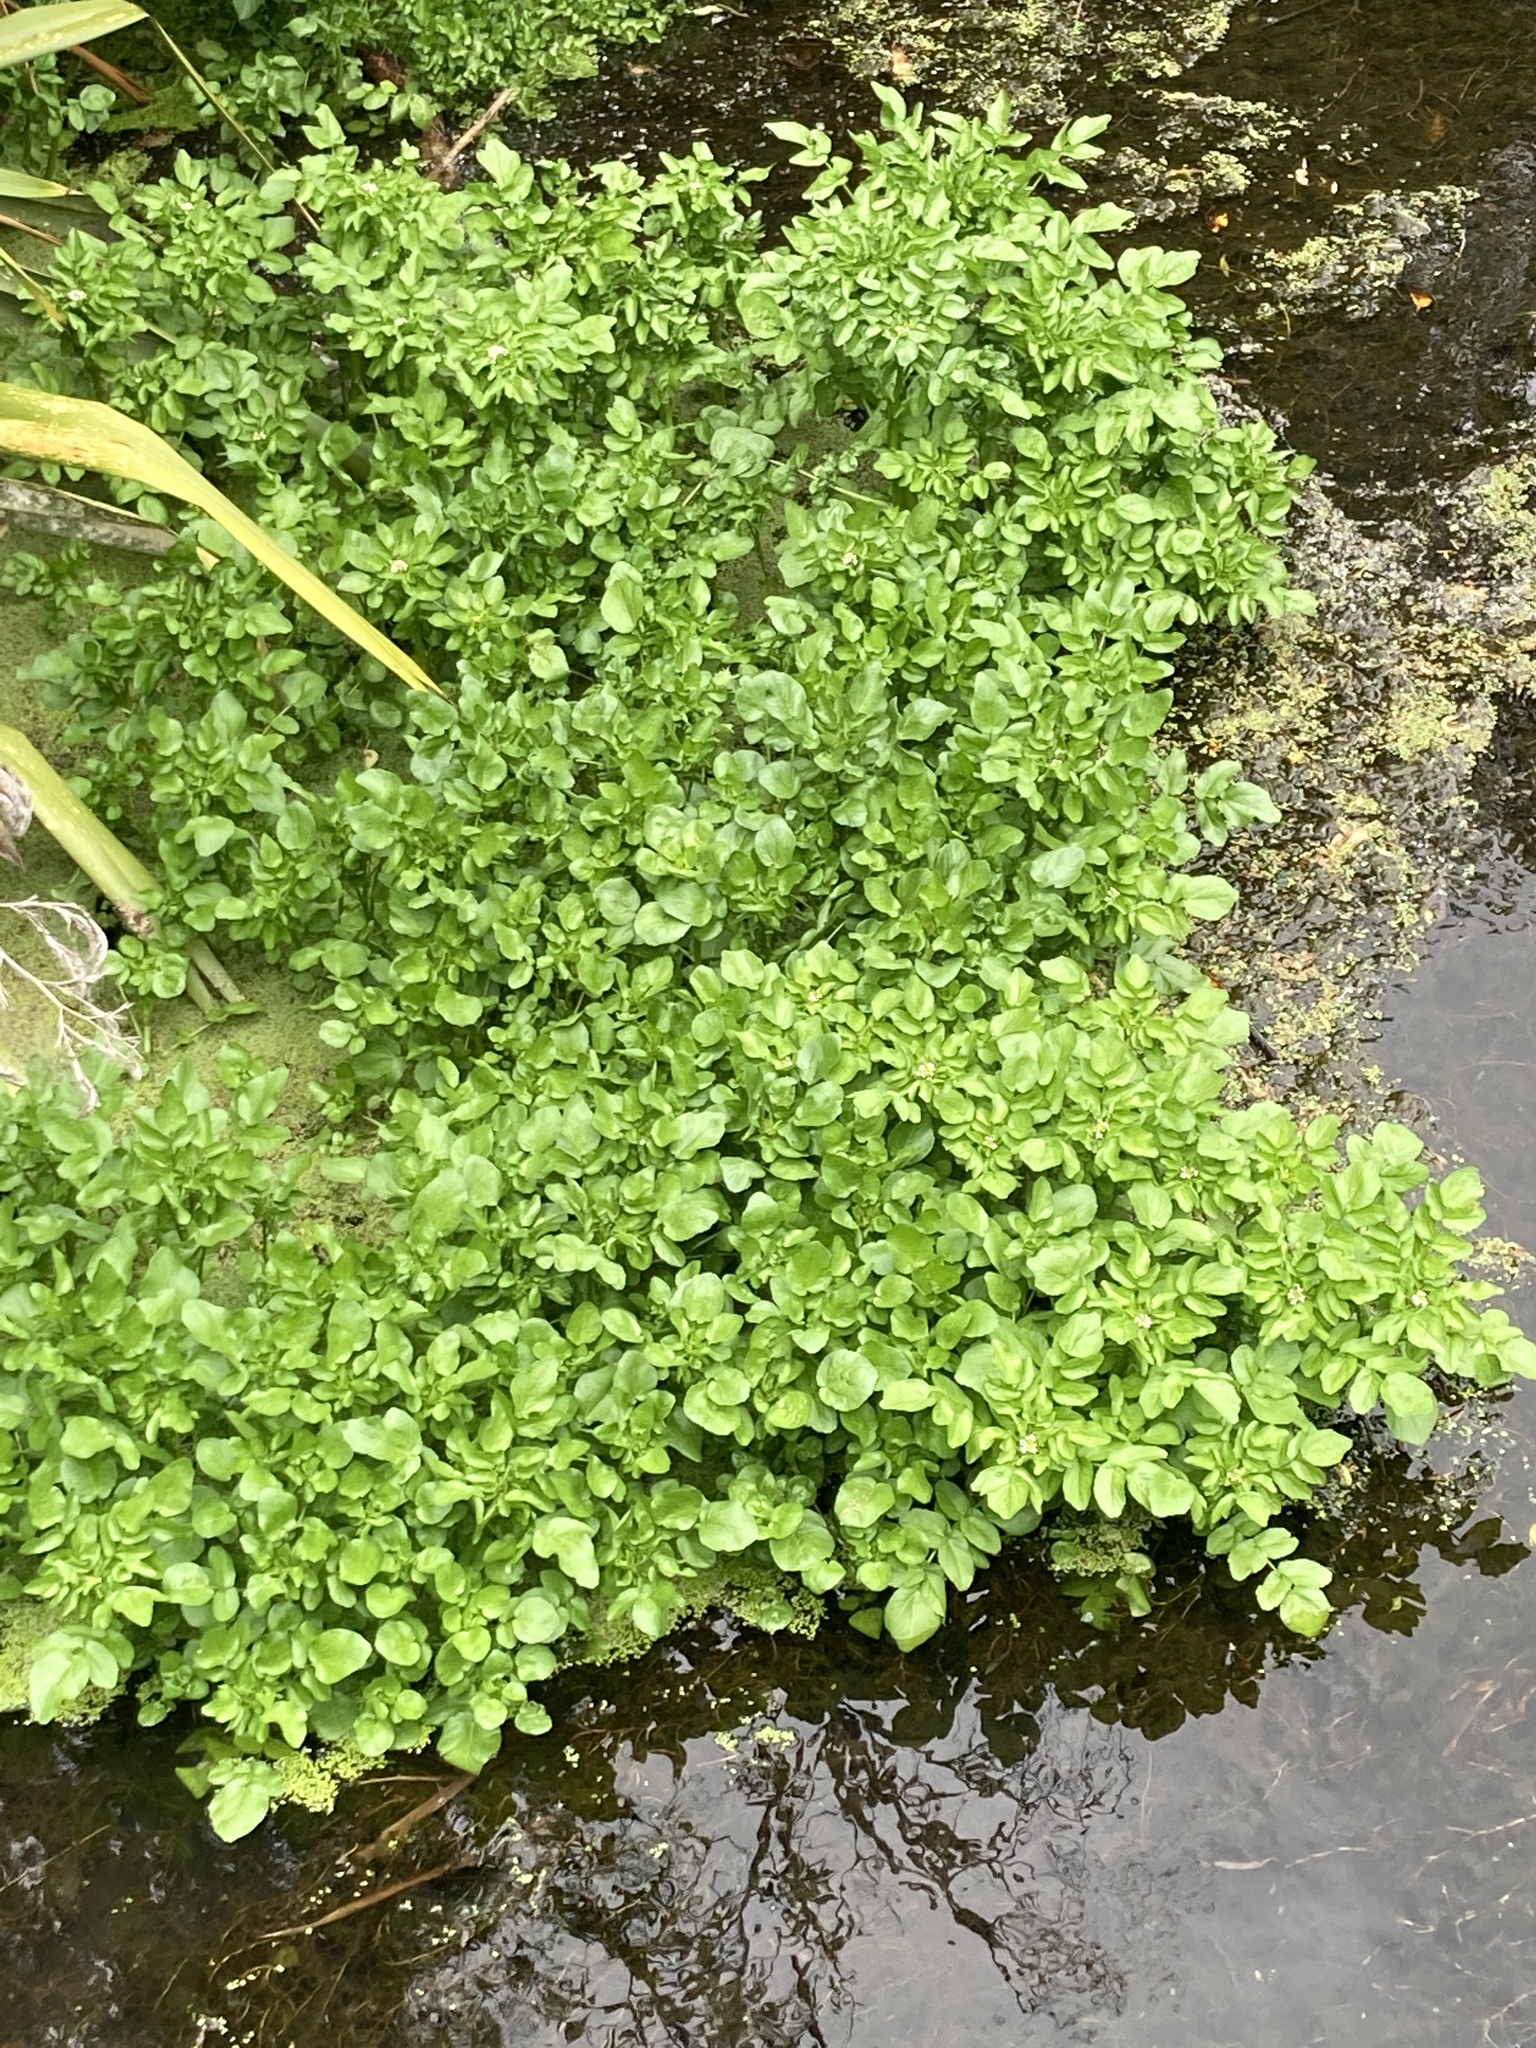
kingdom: Plantae
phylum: Tracheophyta
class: Magnoliopsida
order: Brassicales
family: Brassicaceae
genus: Nasturtium
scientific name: Nasturtium officinale
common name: Watercress
